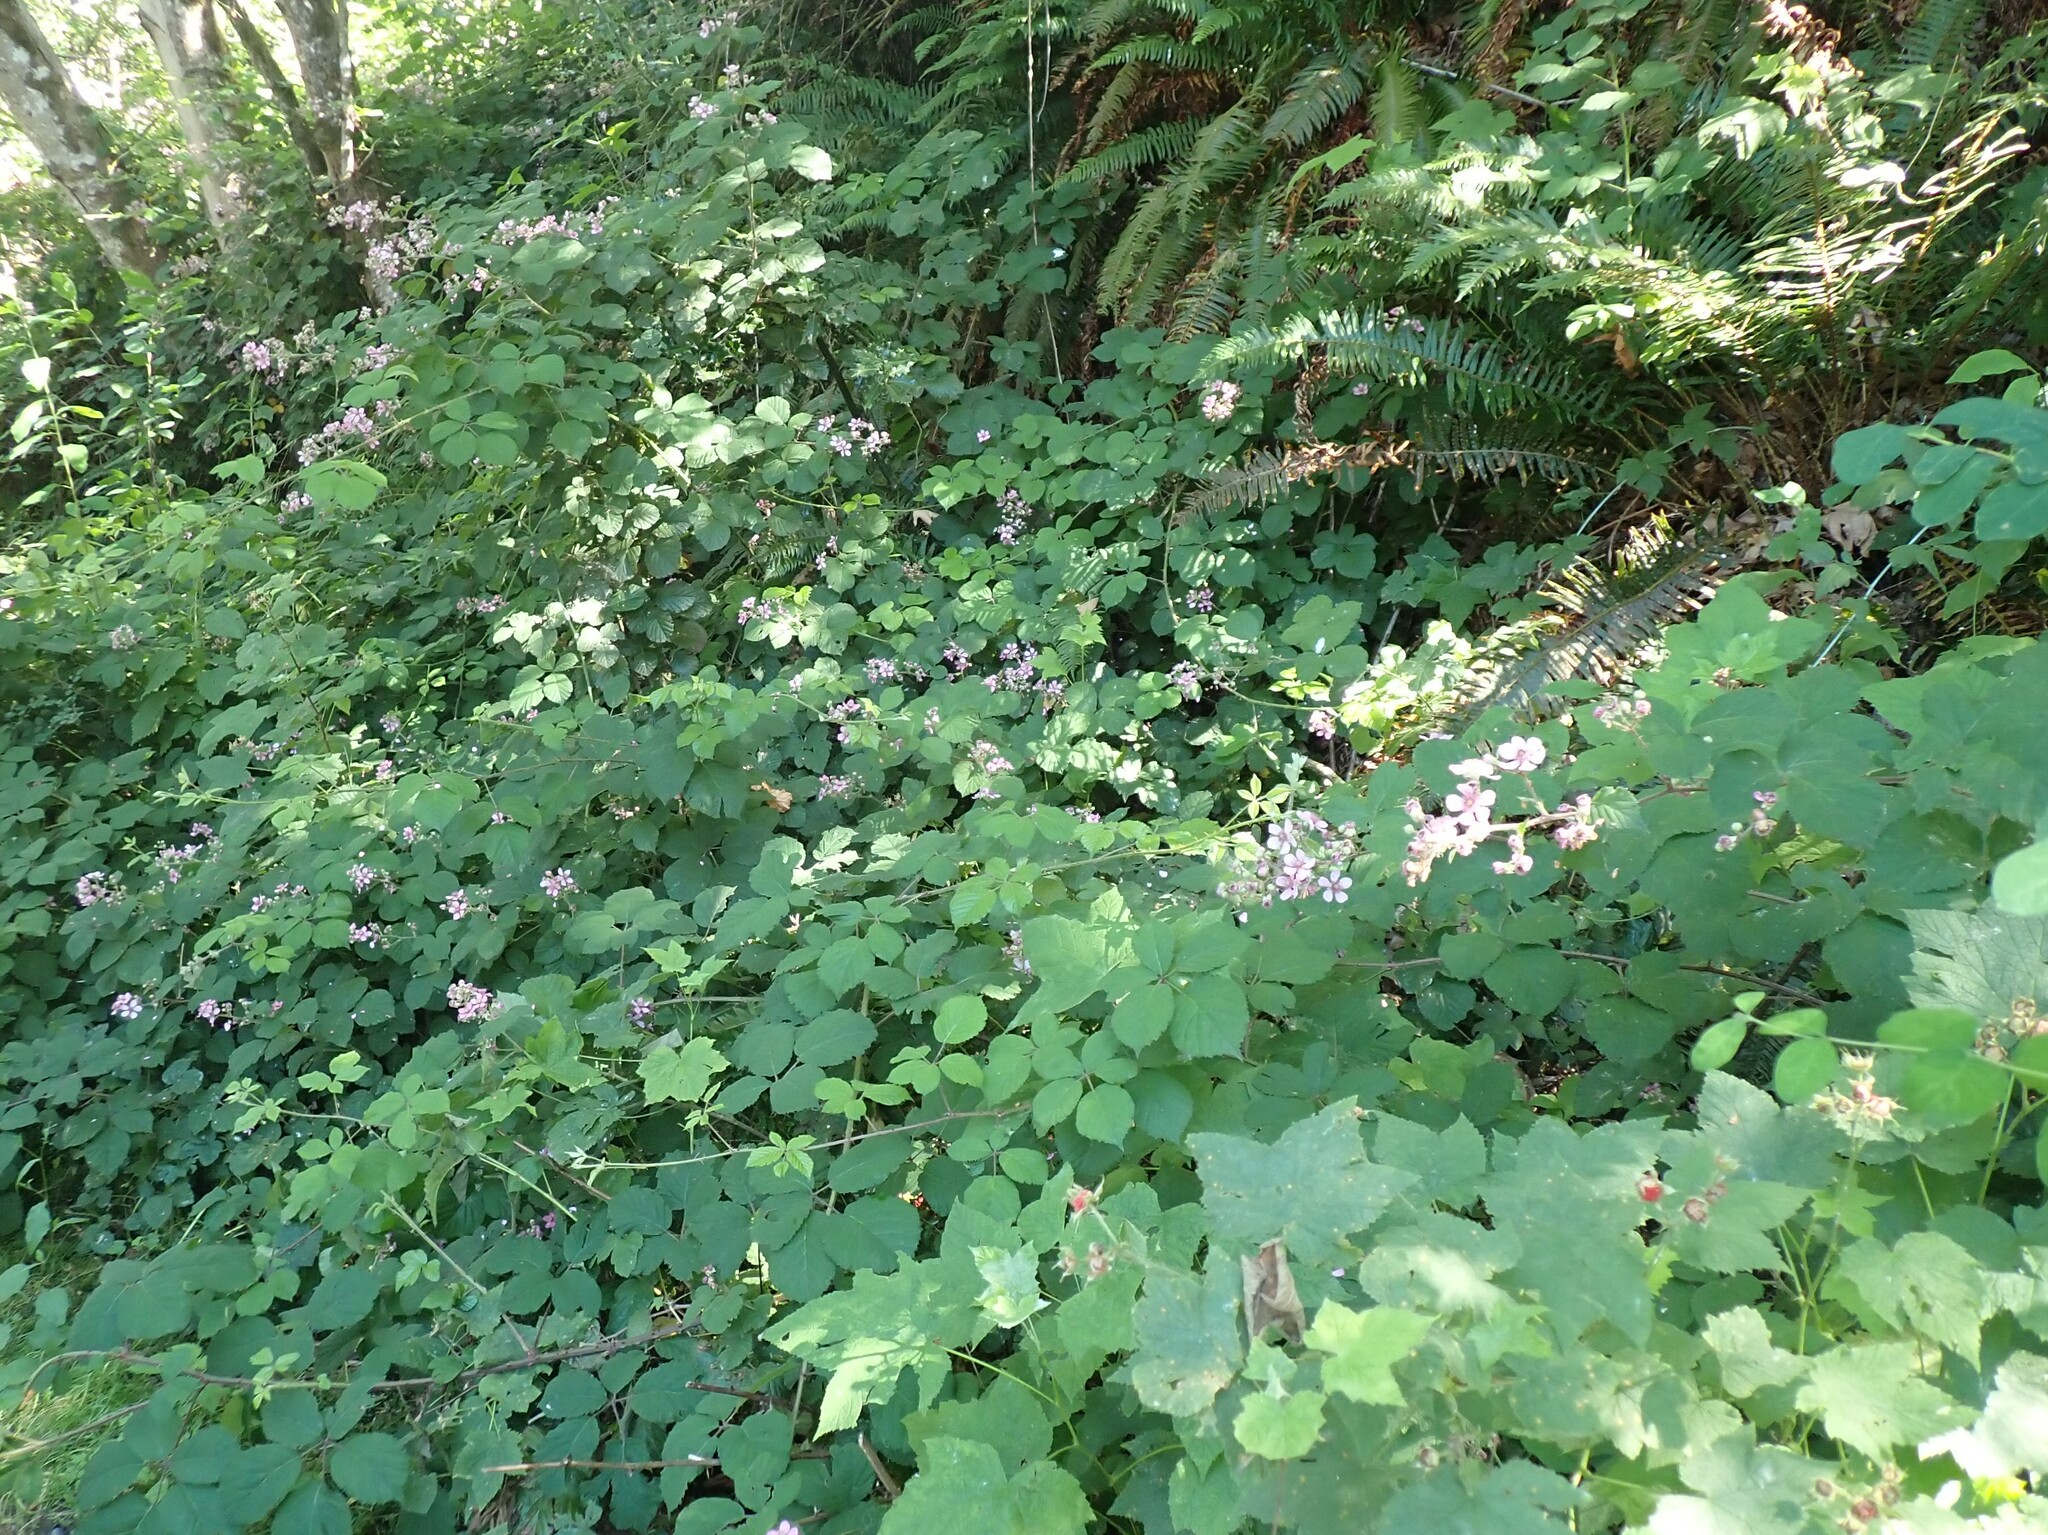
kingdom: Plantae
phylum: Tracheophyta
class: Magnoliopsida
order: Rosales
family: Rosaceae
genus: Rubus
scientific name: Rubus bifrons
